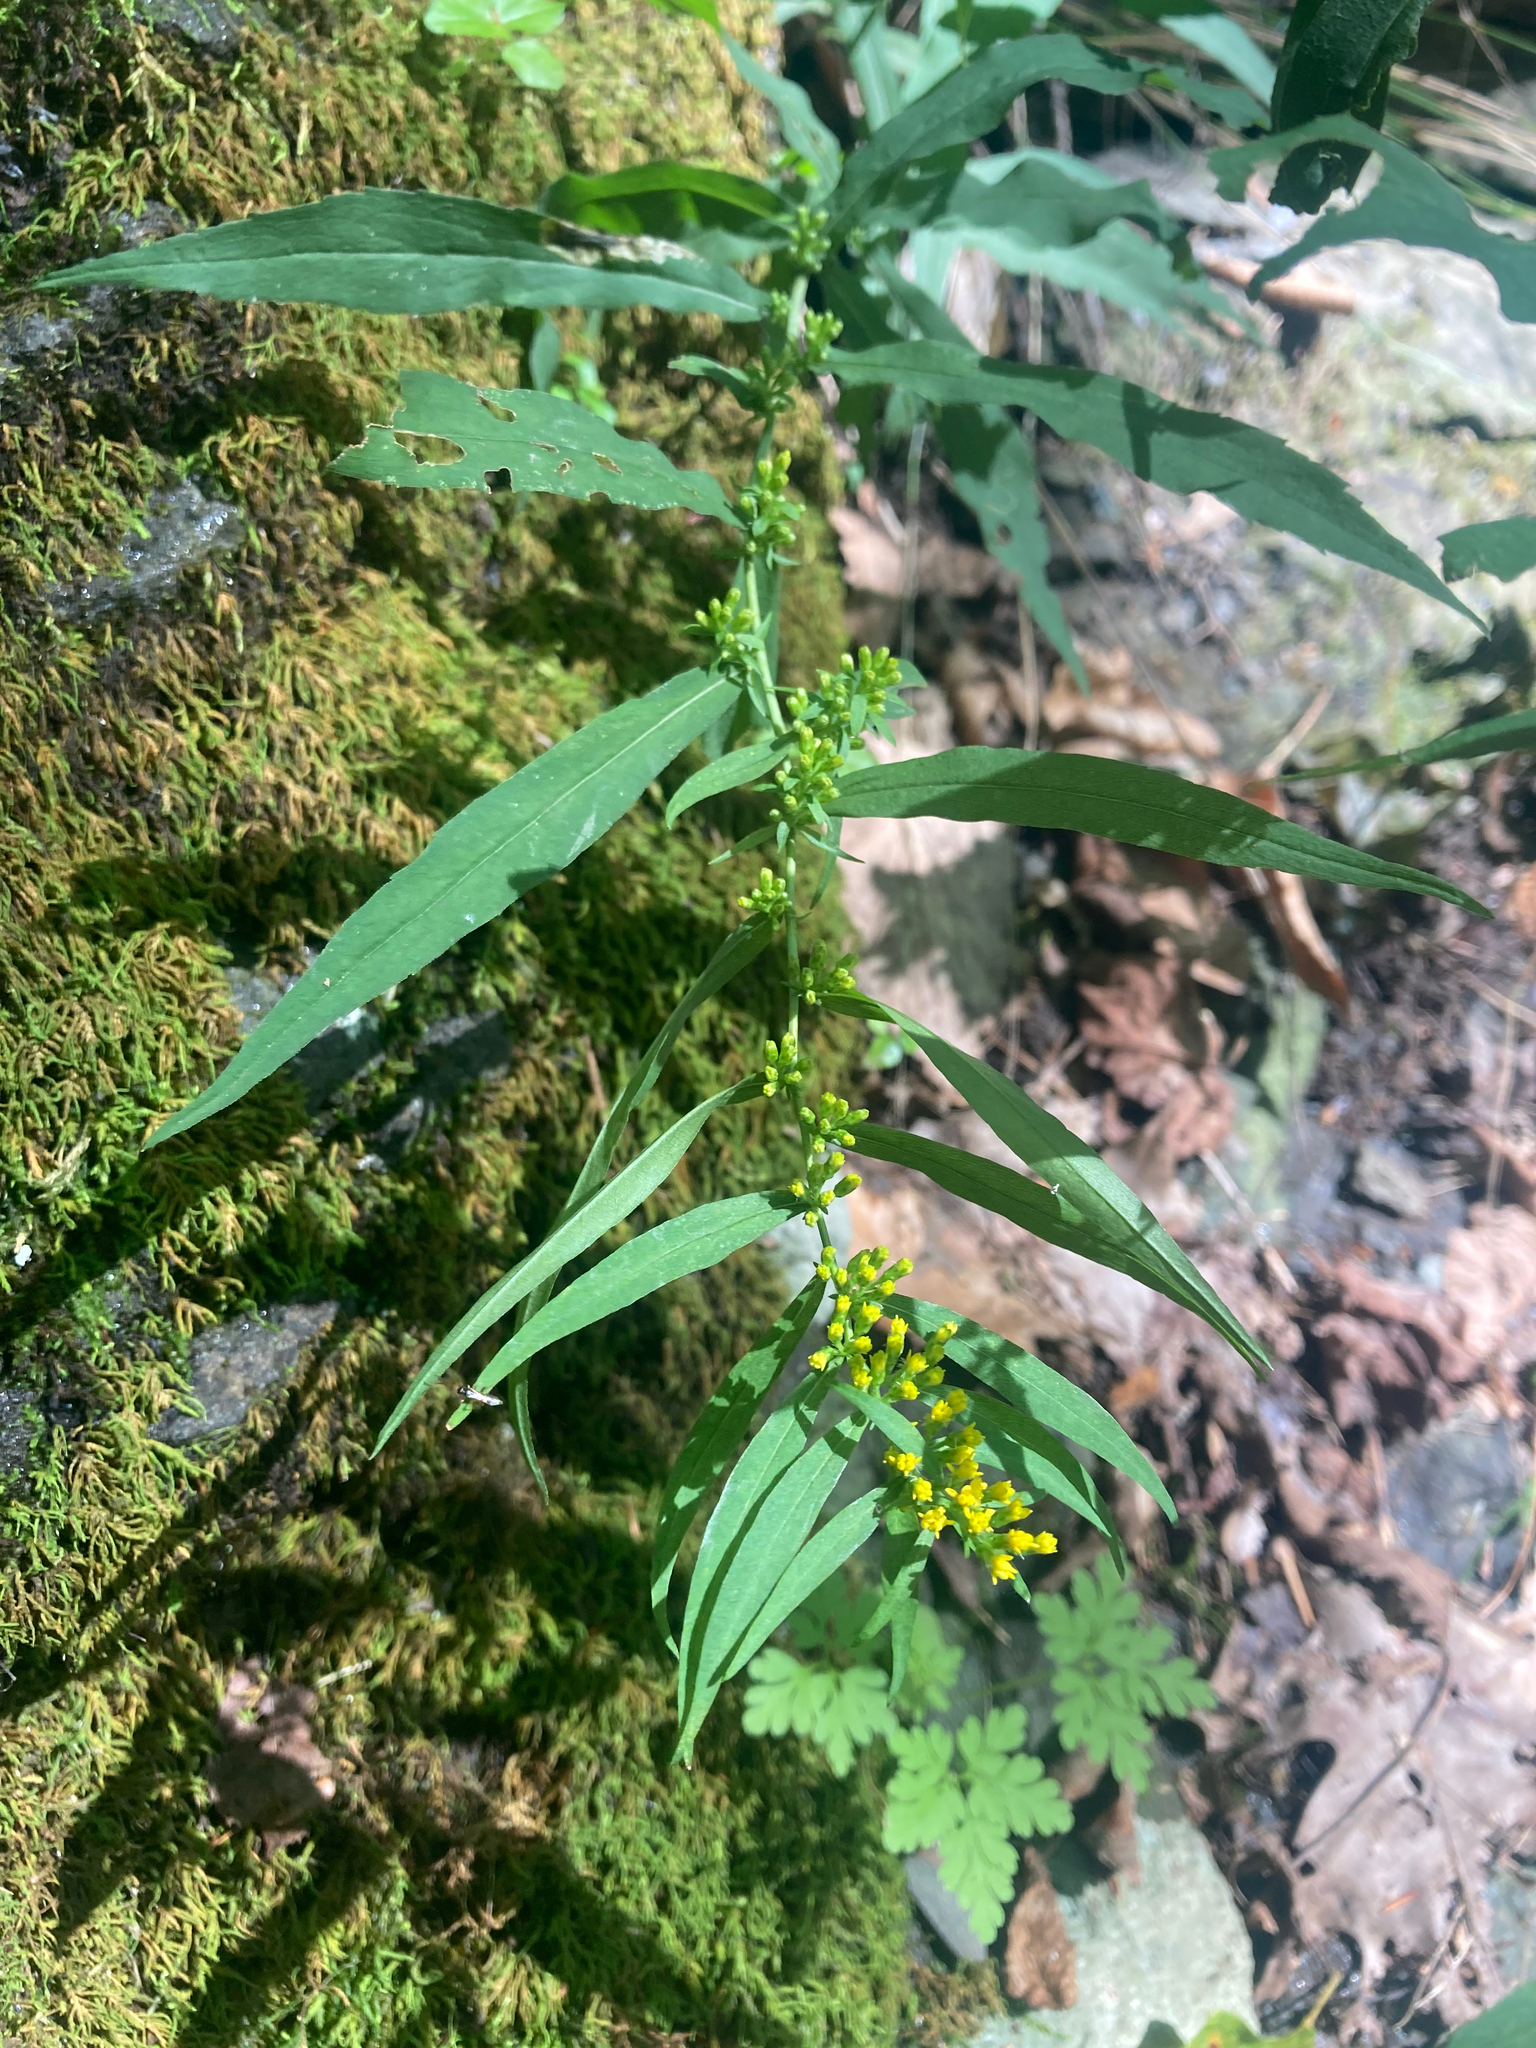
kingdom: Plantae
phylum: Tracheophyta
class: Magnoliopsida
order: Asterales
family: Asteraceae
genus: Solidago
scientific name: Solidago caesia
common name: Woodland goldenrod
